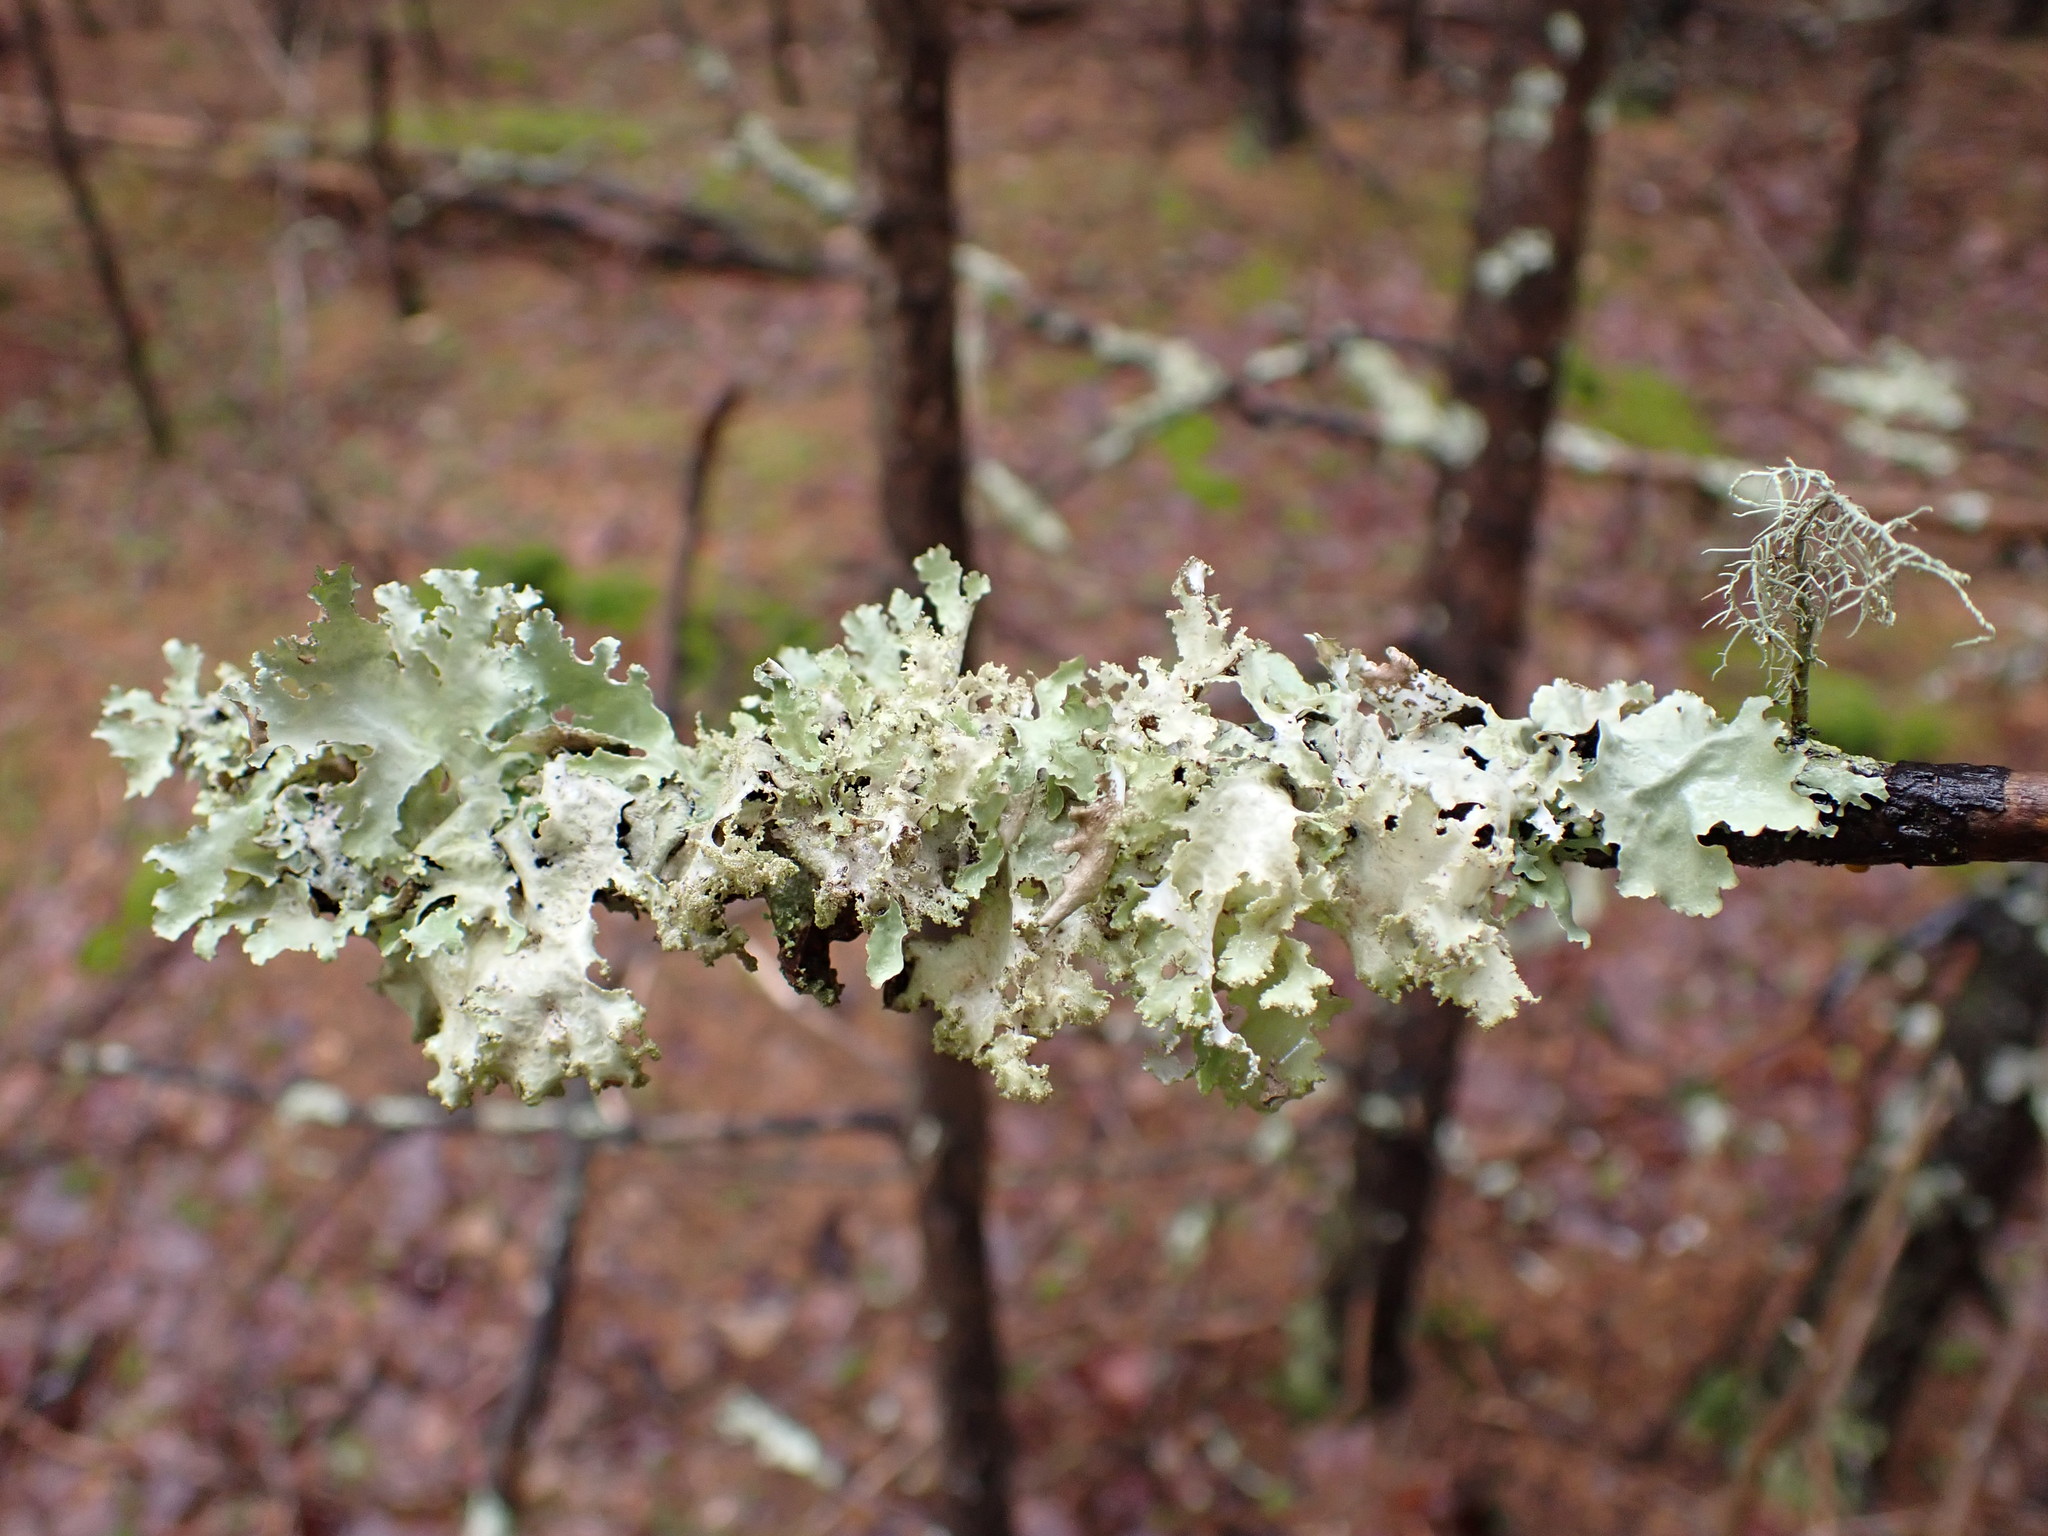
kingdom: Fungi
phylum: Ascomycota
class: Lecanoromycetes
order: Lecanorales
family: Parmeliaceae
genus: Platismatia
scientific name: Platismatia glauca
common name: Varied rag lichen
